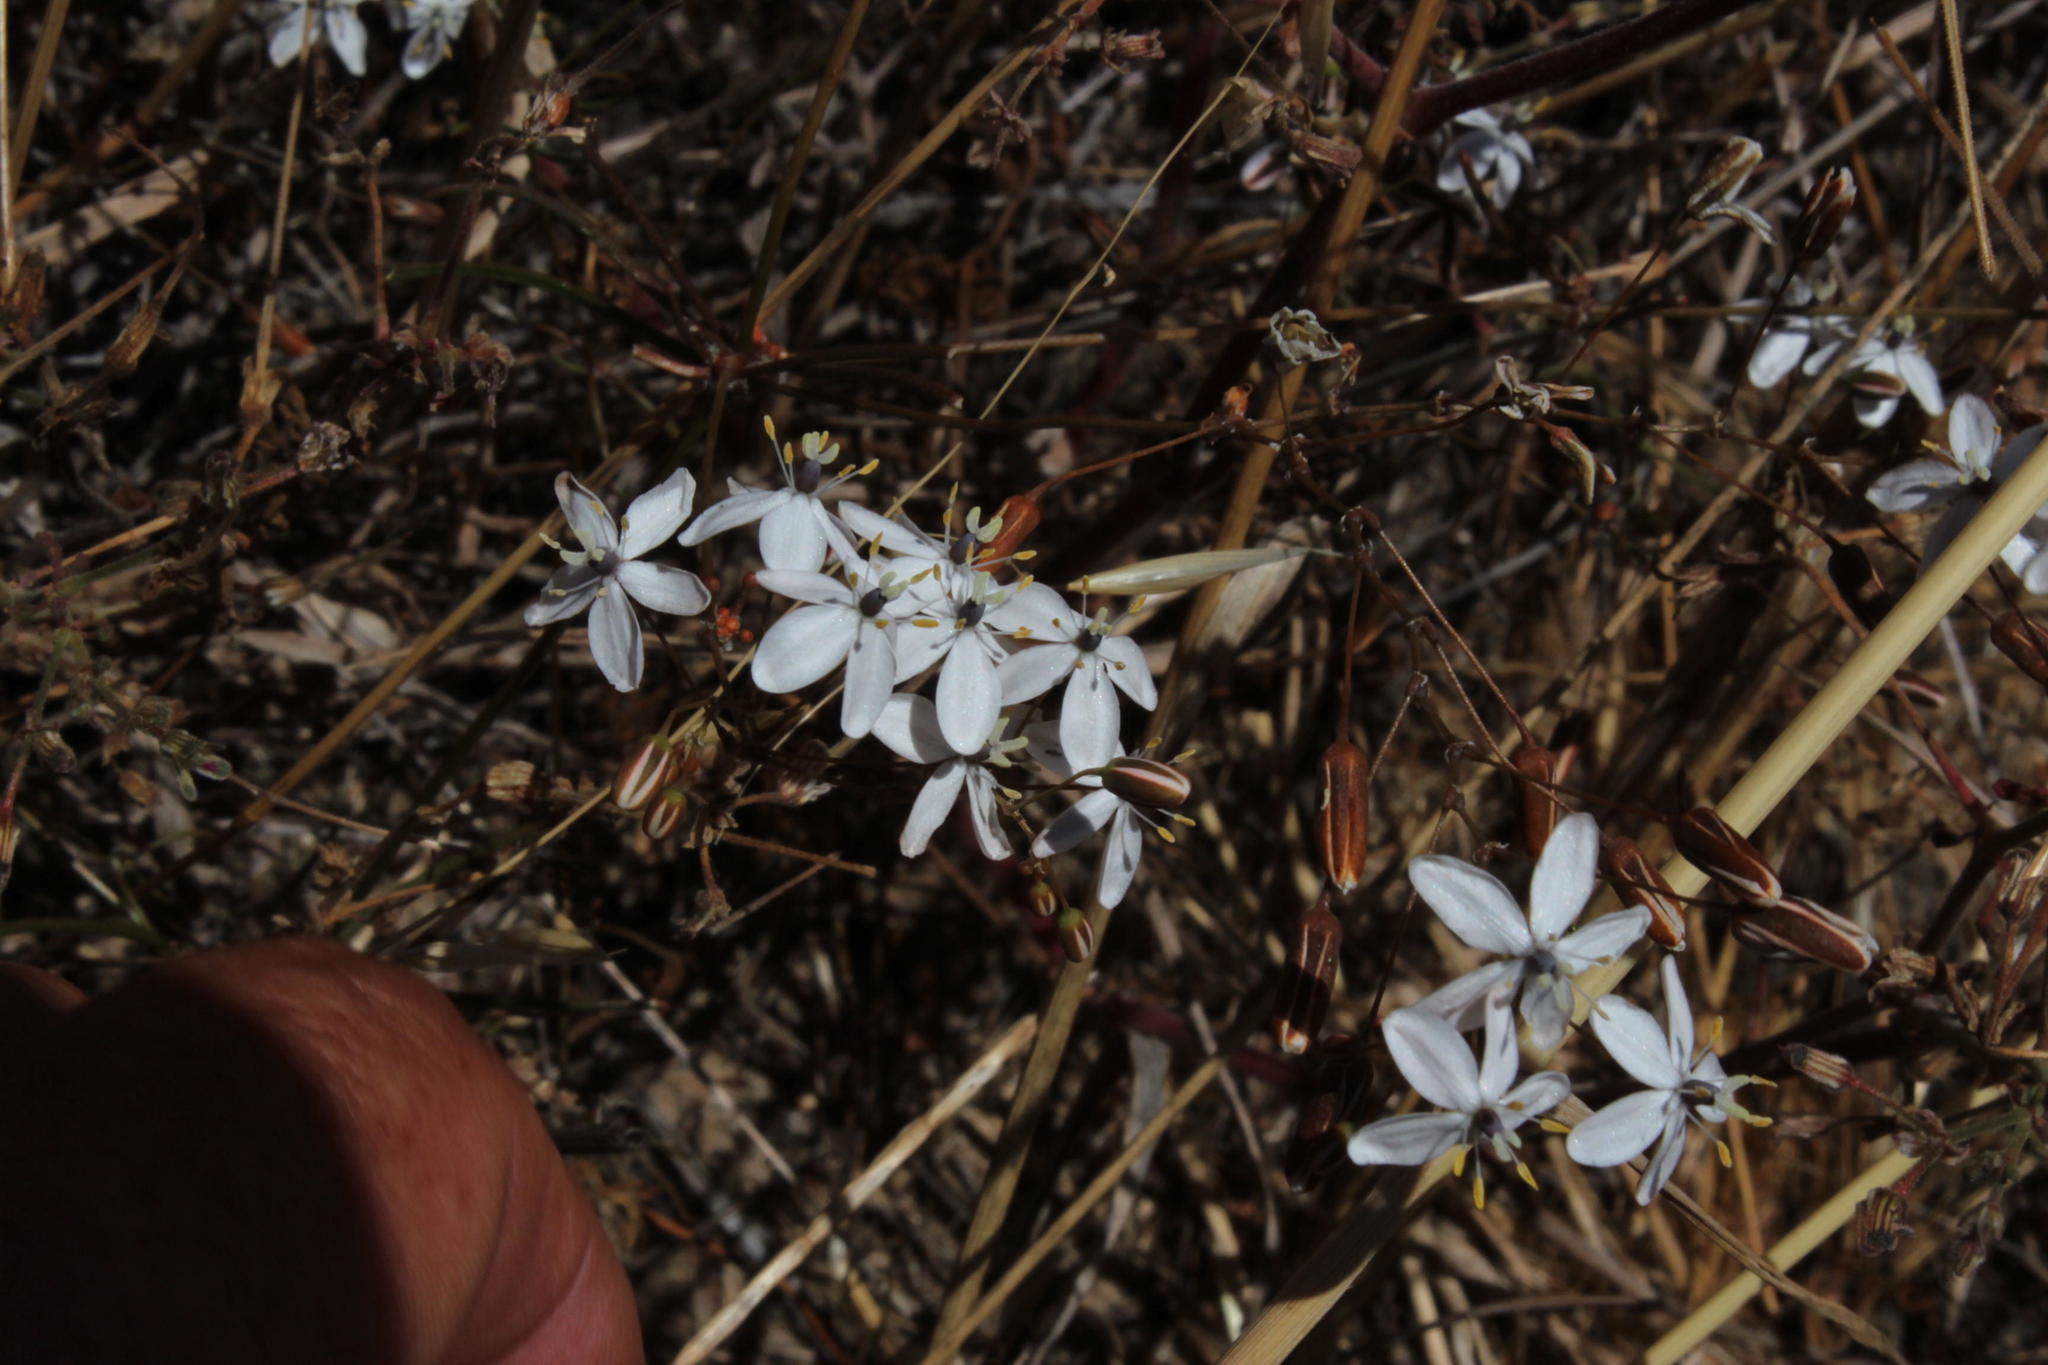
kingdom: Plantae
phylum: Tracheophyta
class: Magnoliopsida
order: Caryophyllales
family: Molluginaceae
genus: Pharnaceum
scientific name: Pharnaceum lineare
